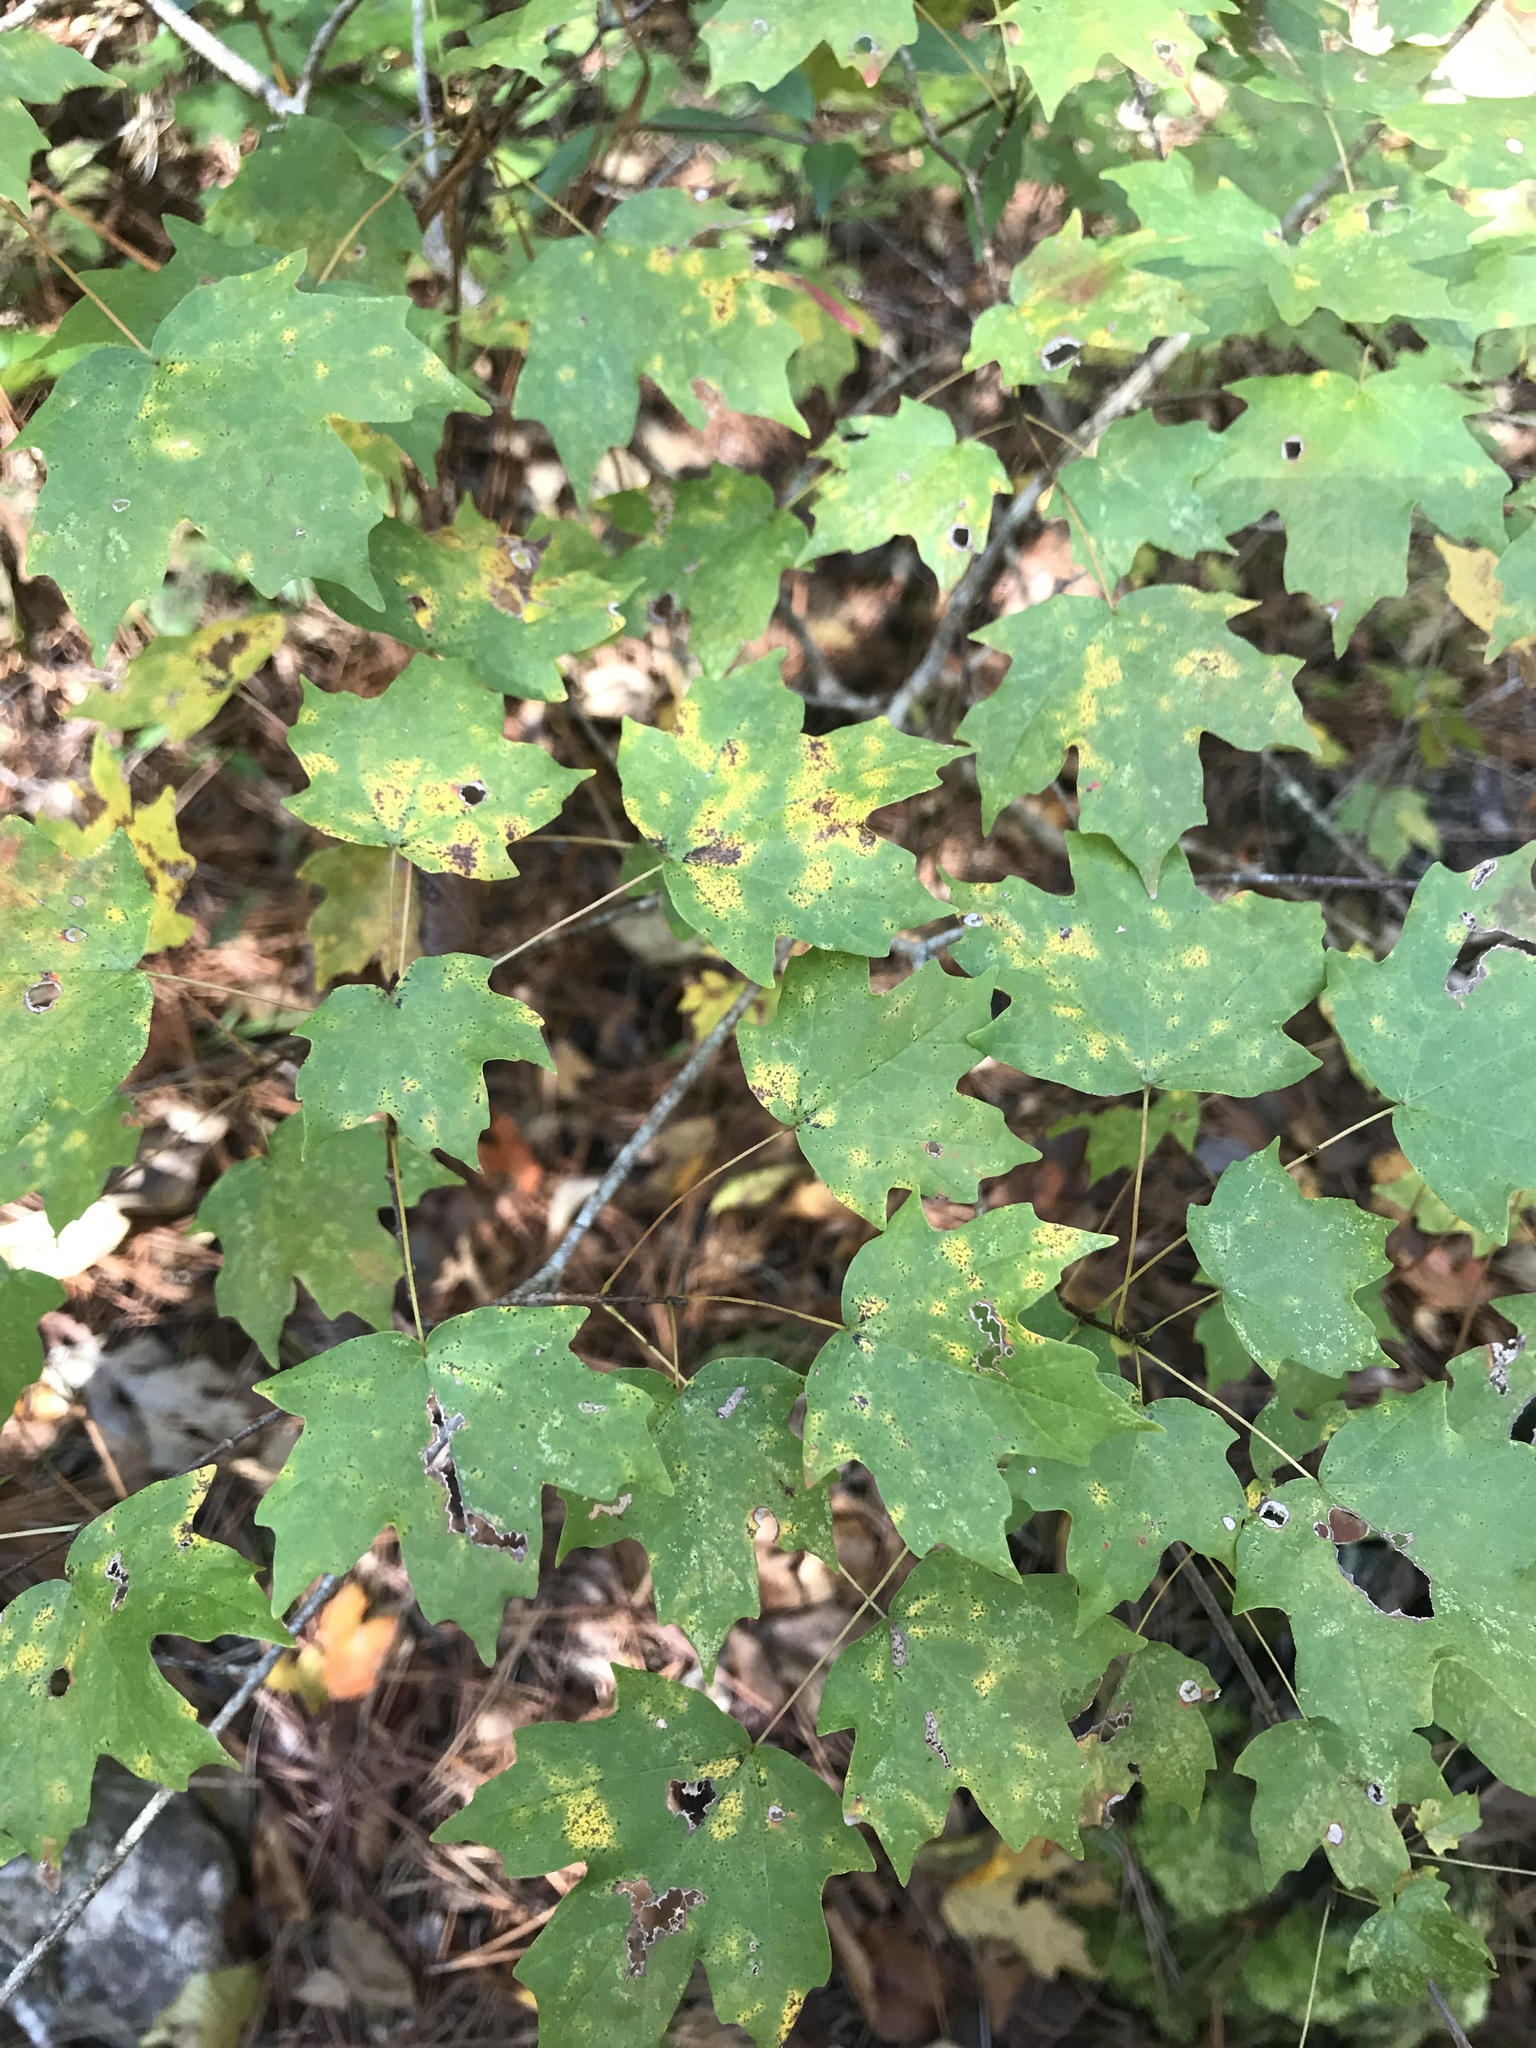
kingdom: Plantae
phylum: Tracheophyta
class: Magnoliopsida
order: Sapindales
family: Sapindaceae
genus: Acer
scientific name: Acer floridanum
